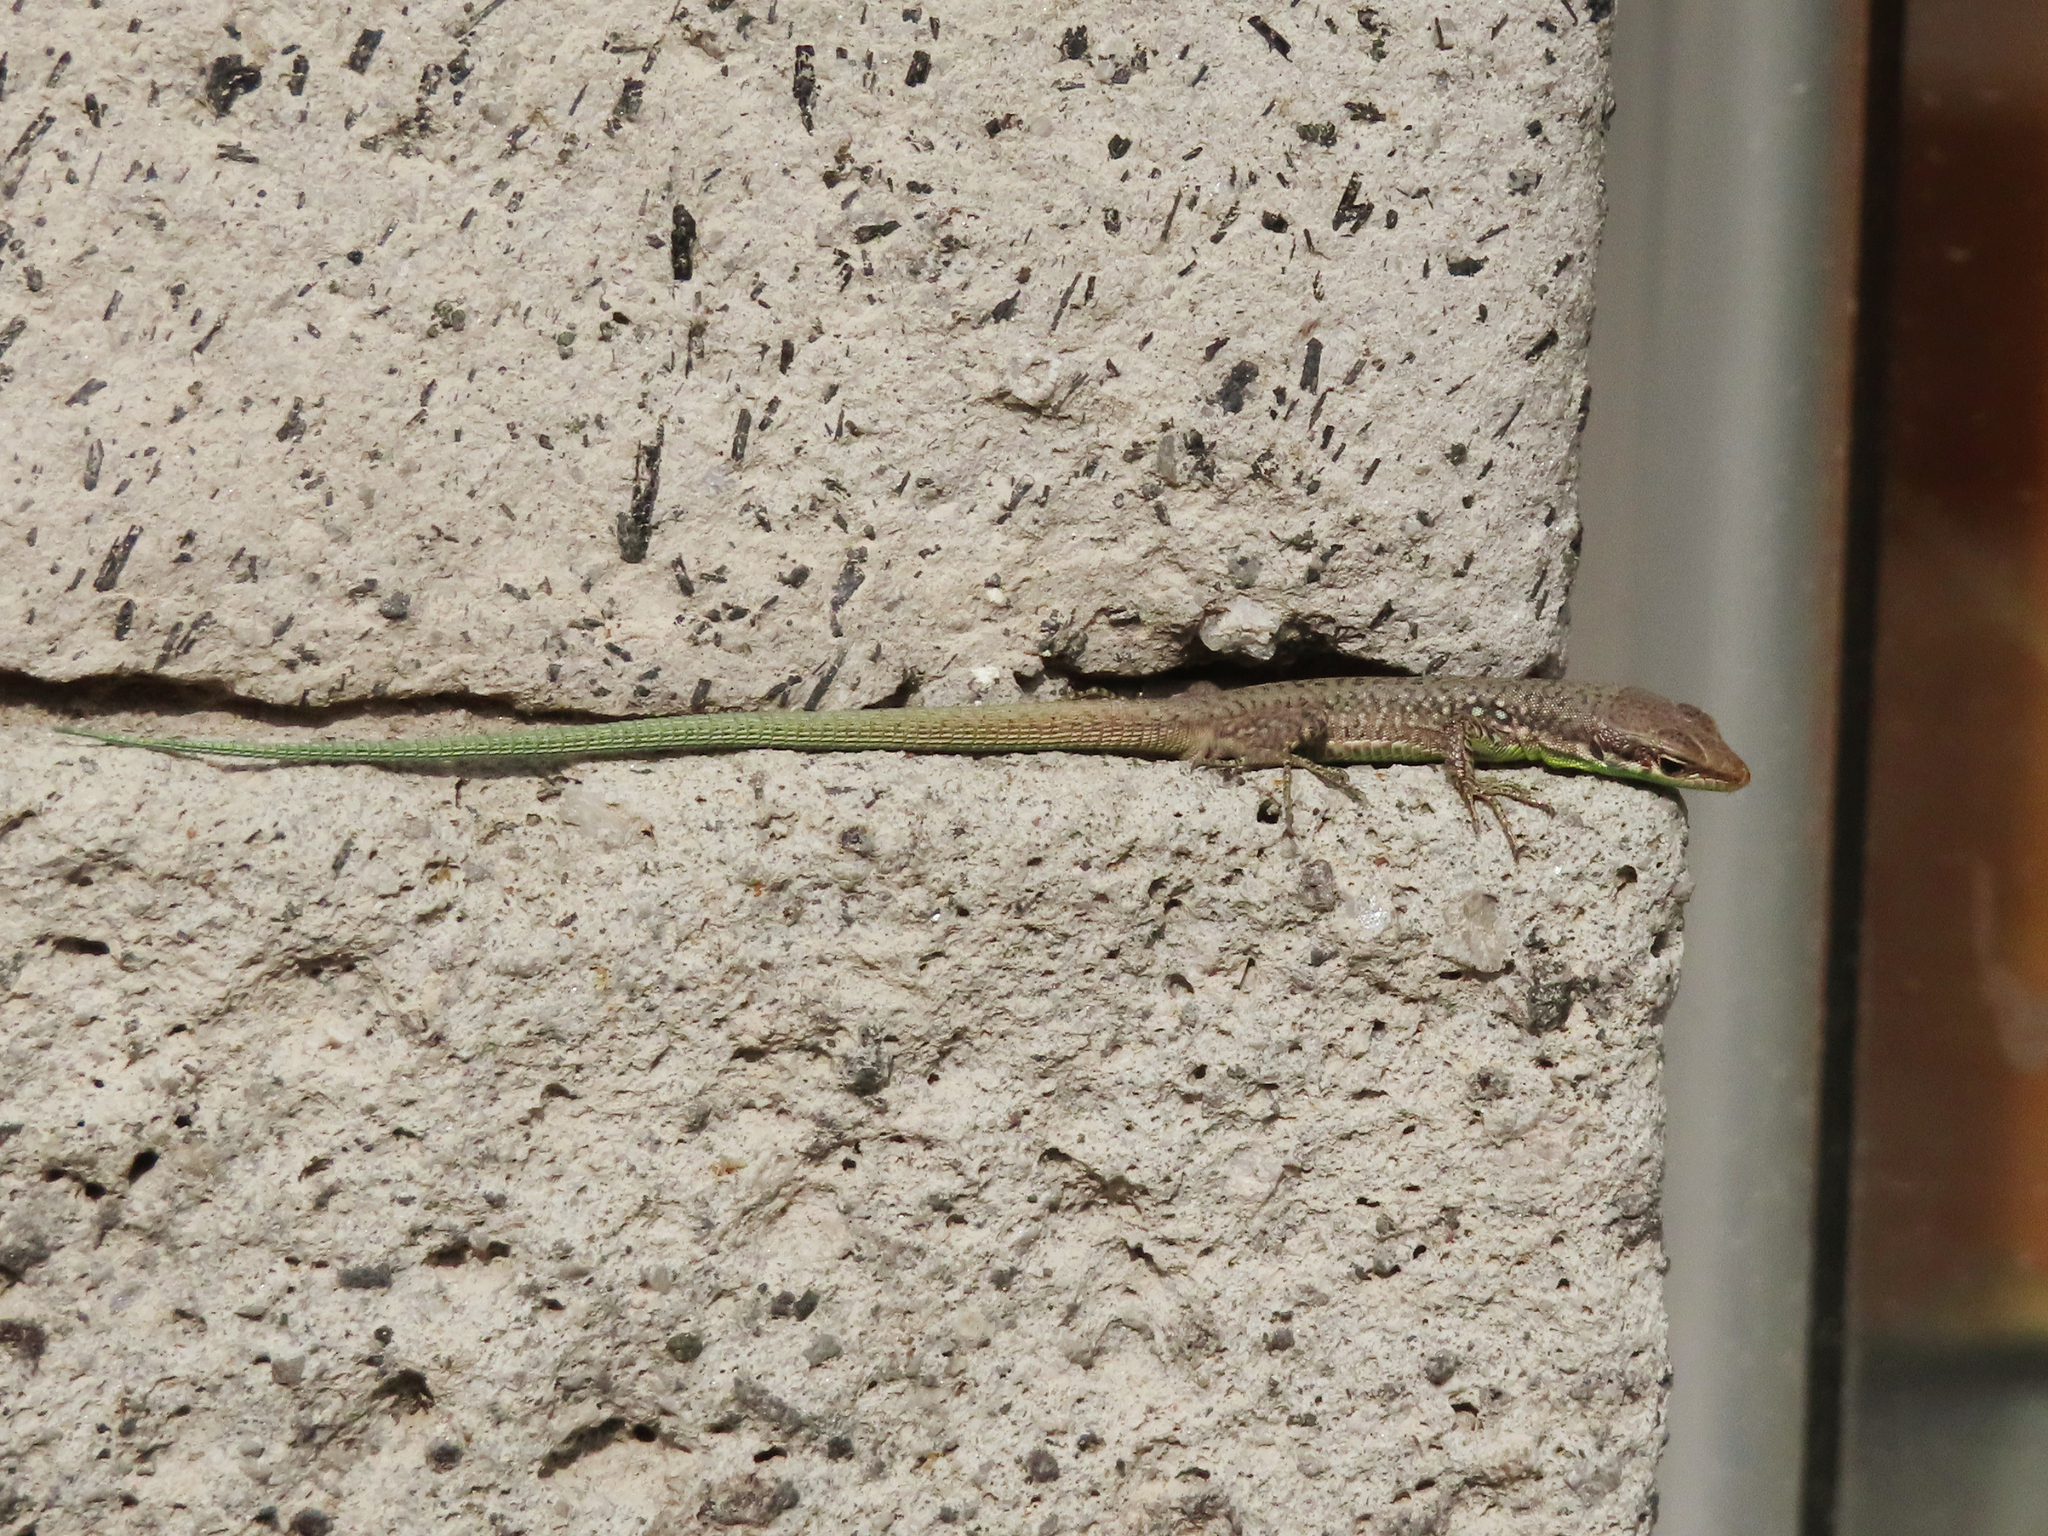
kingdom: Animalia
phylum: Chordata
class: Squamata
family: Lacertidae
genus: Darevskia
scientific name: Darevskia raddei
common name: Radde's lizard
